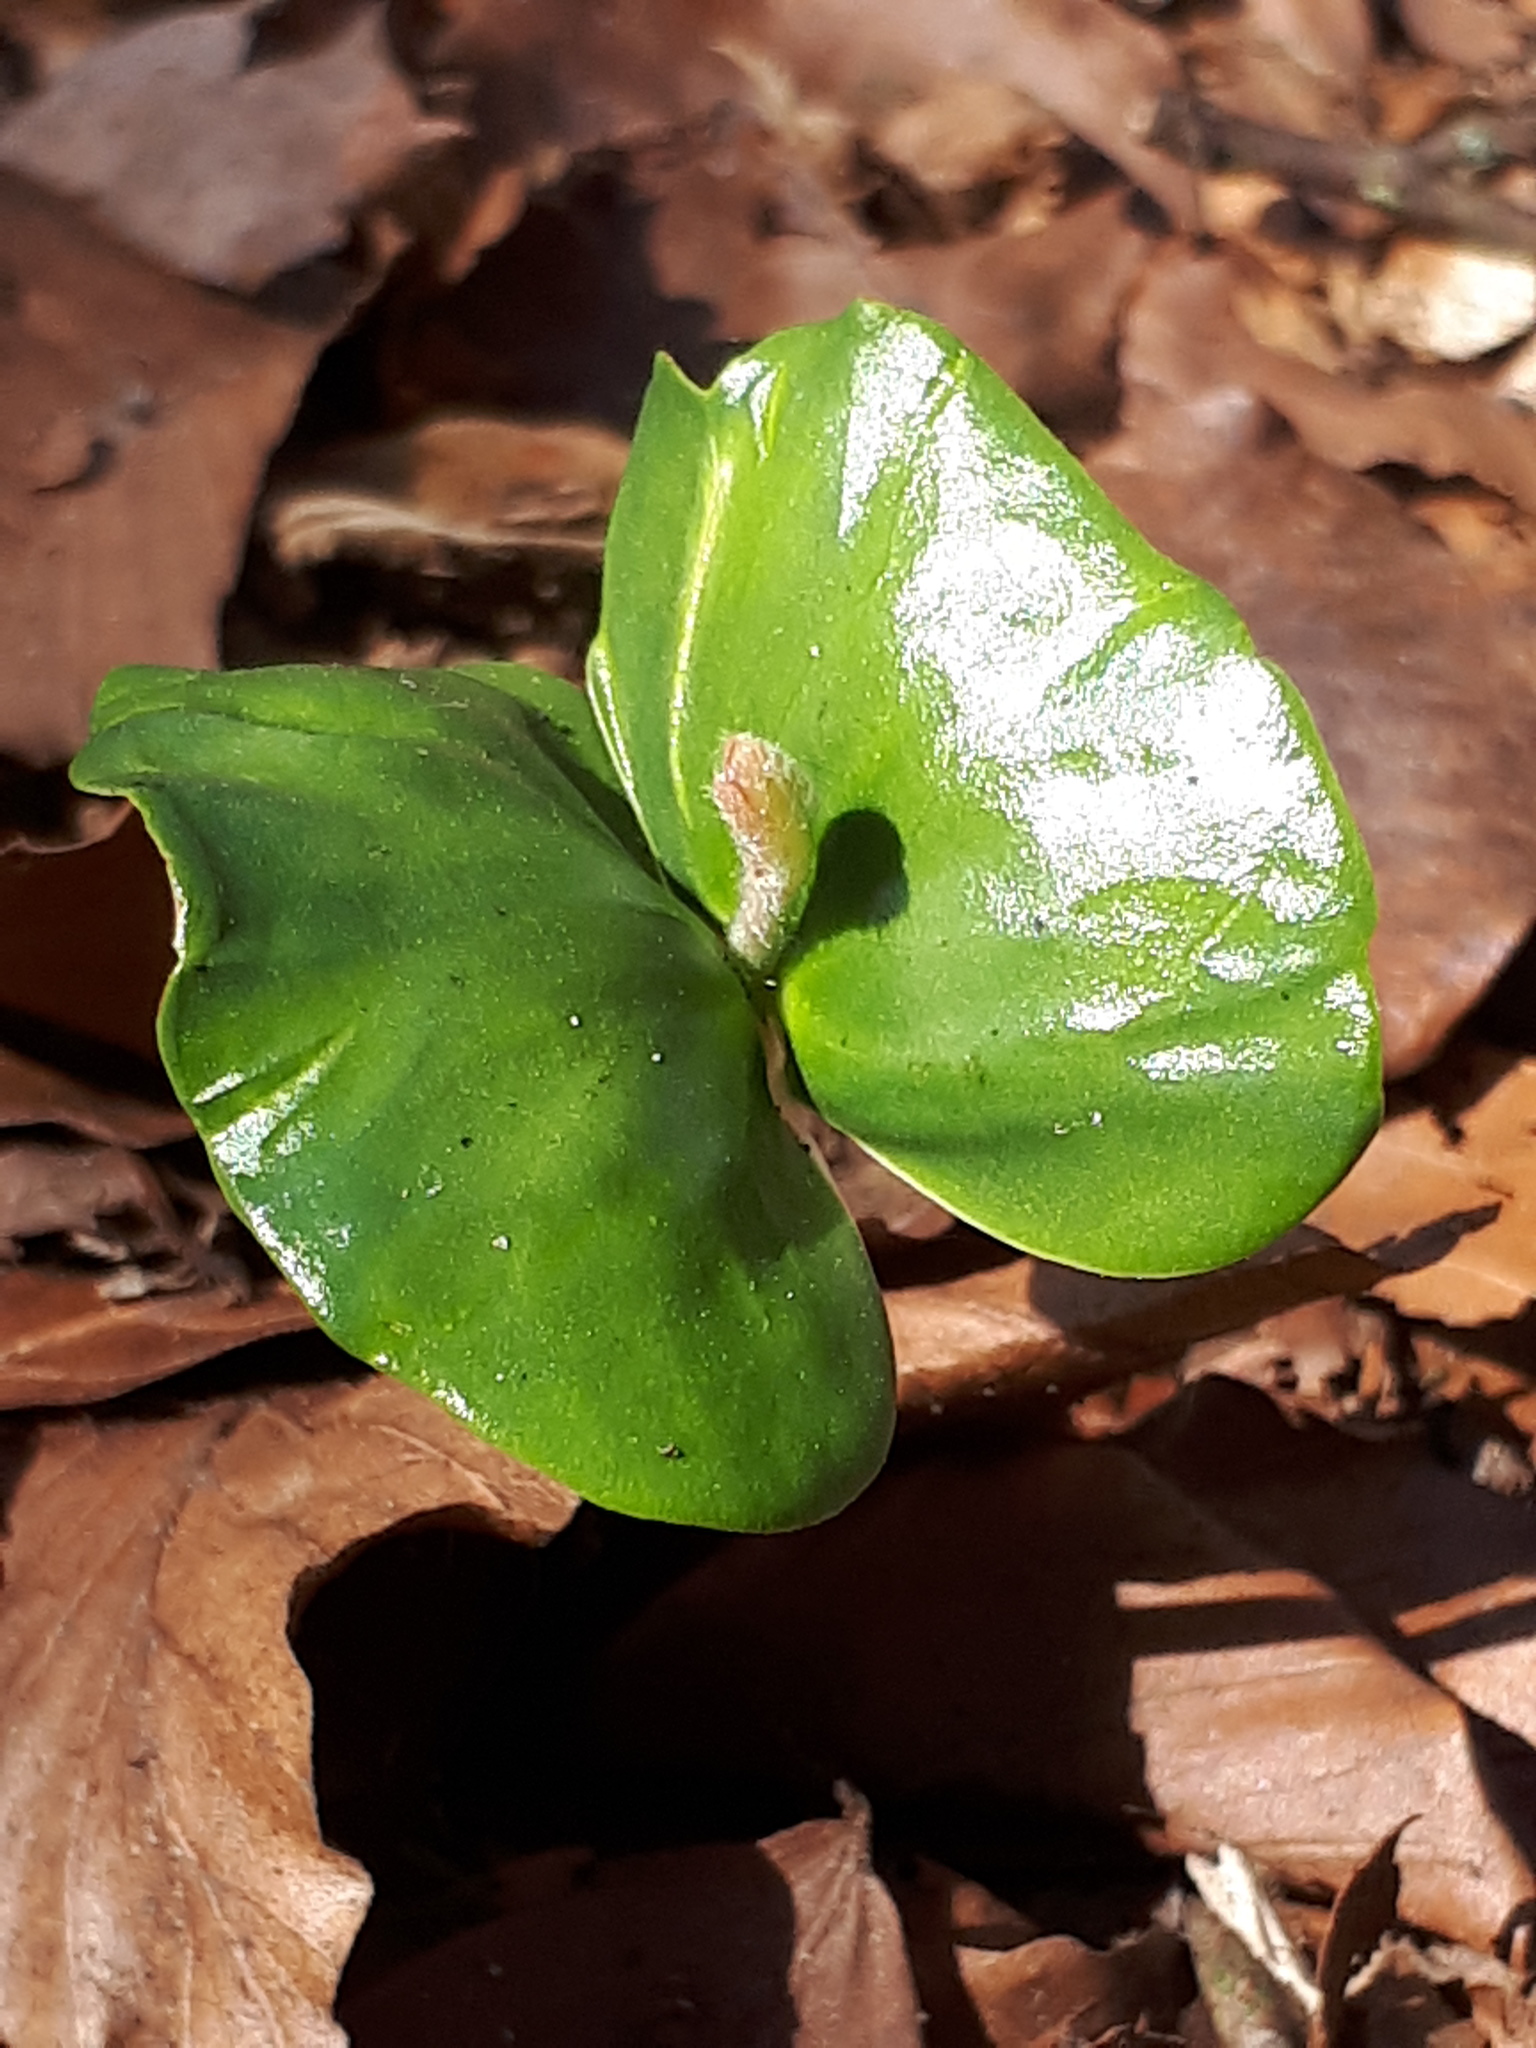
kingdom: Plantae
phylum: Tracheophyta
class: Magnoliopsida
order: Fagales
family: Fagaceae
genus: Fagus
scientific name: Fagus sylvatica
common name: Beech
